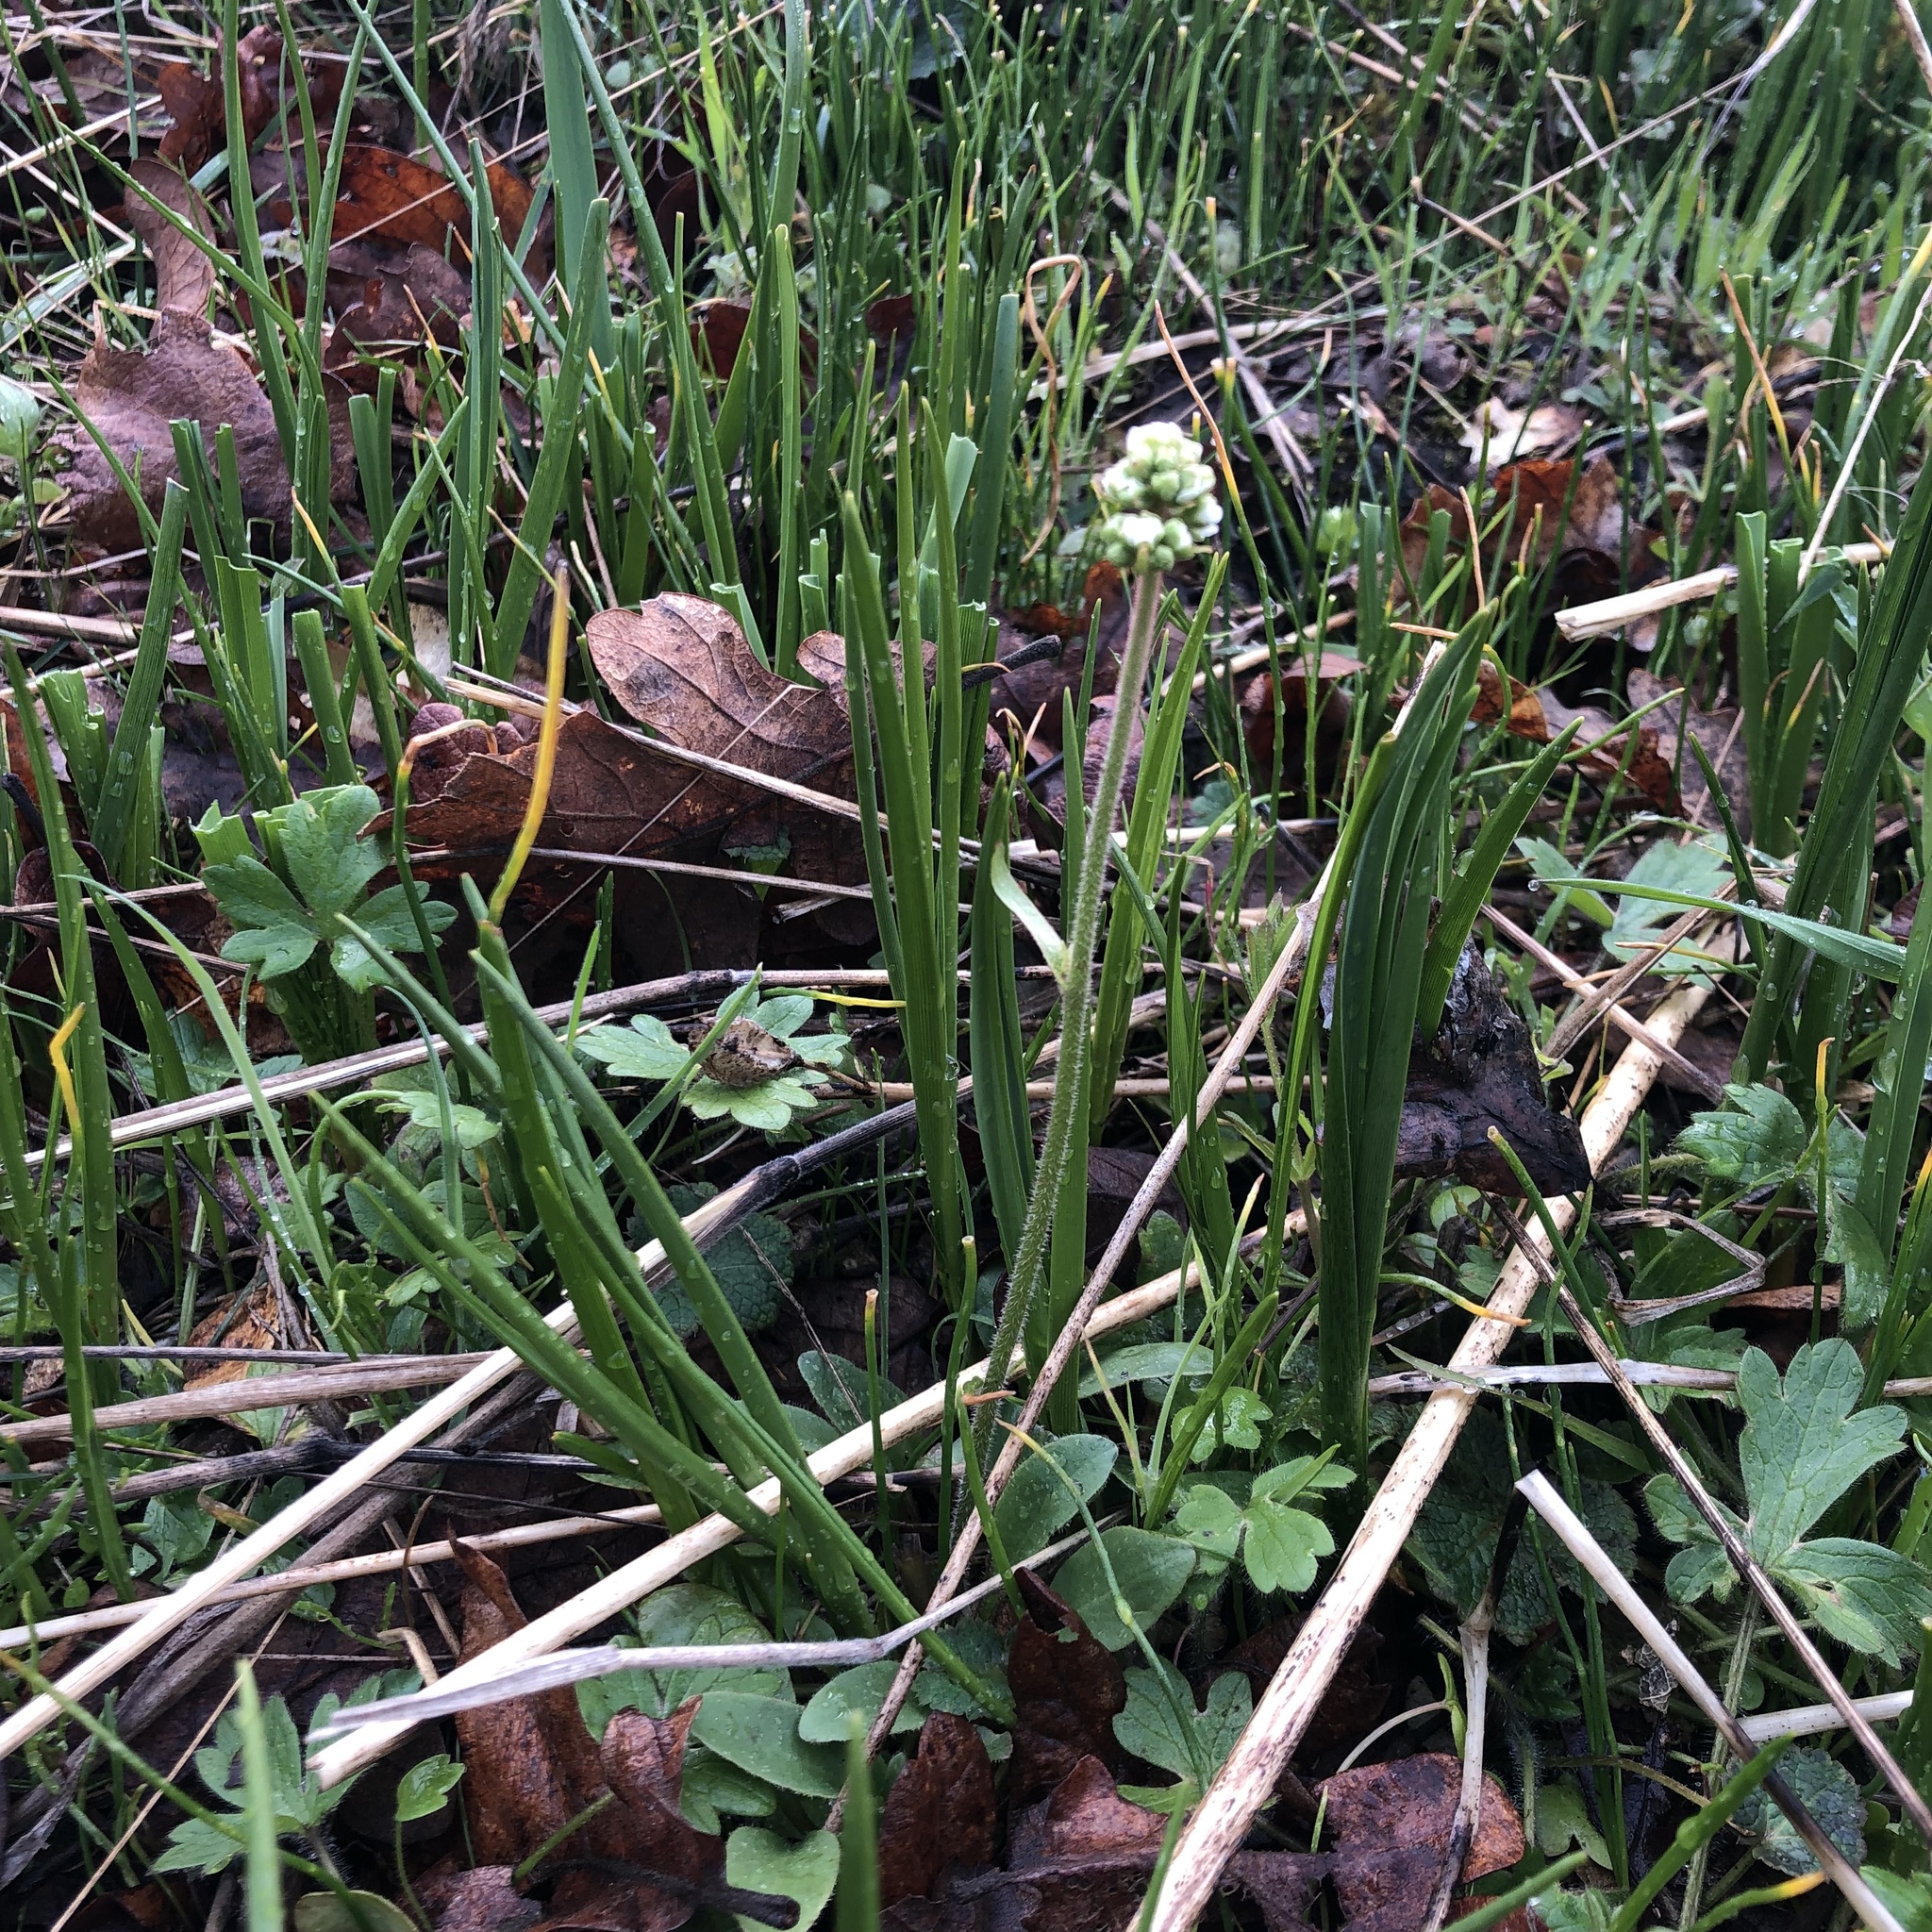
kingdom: Plantae
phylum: Tracheophyta
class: Magnoliopsida
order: Saxifragales
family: Saxifragaceae
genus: Micranthes
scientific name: Micranthes integrifolia
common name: Wholeleaf saxifrage
